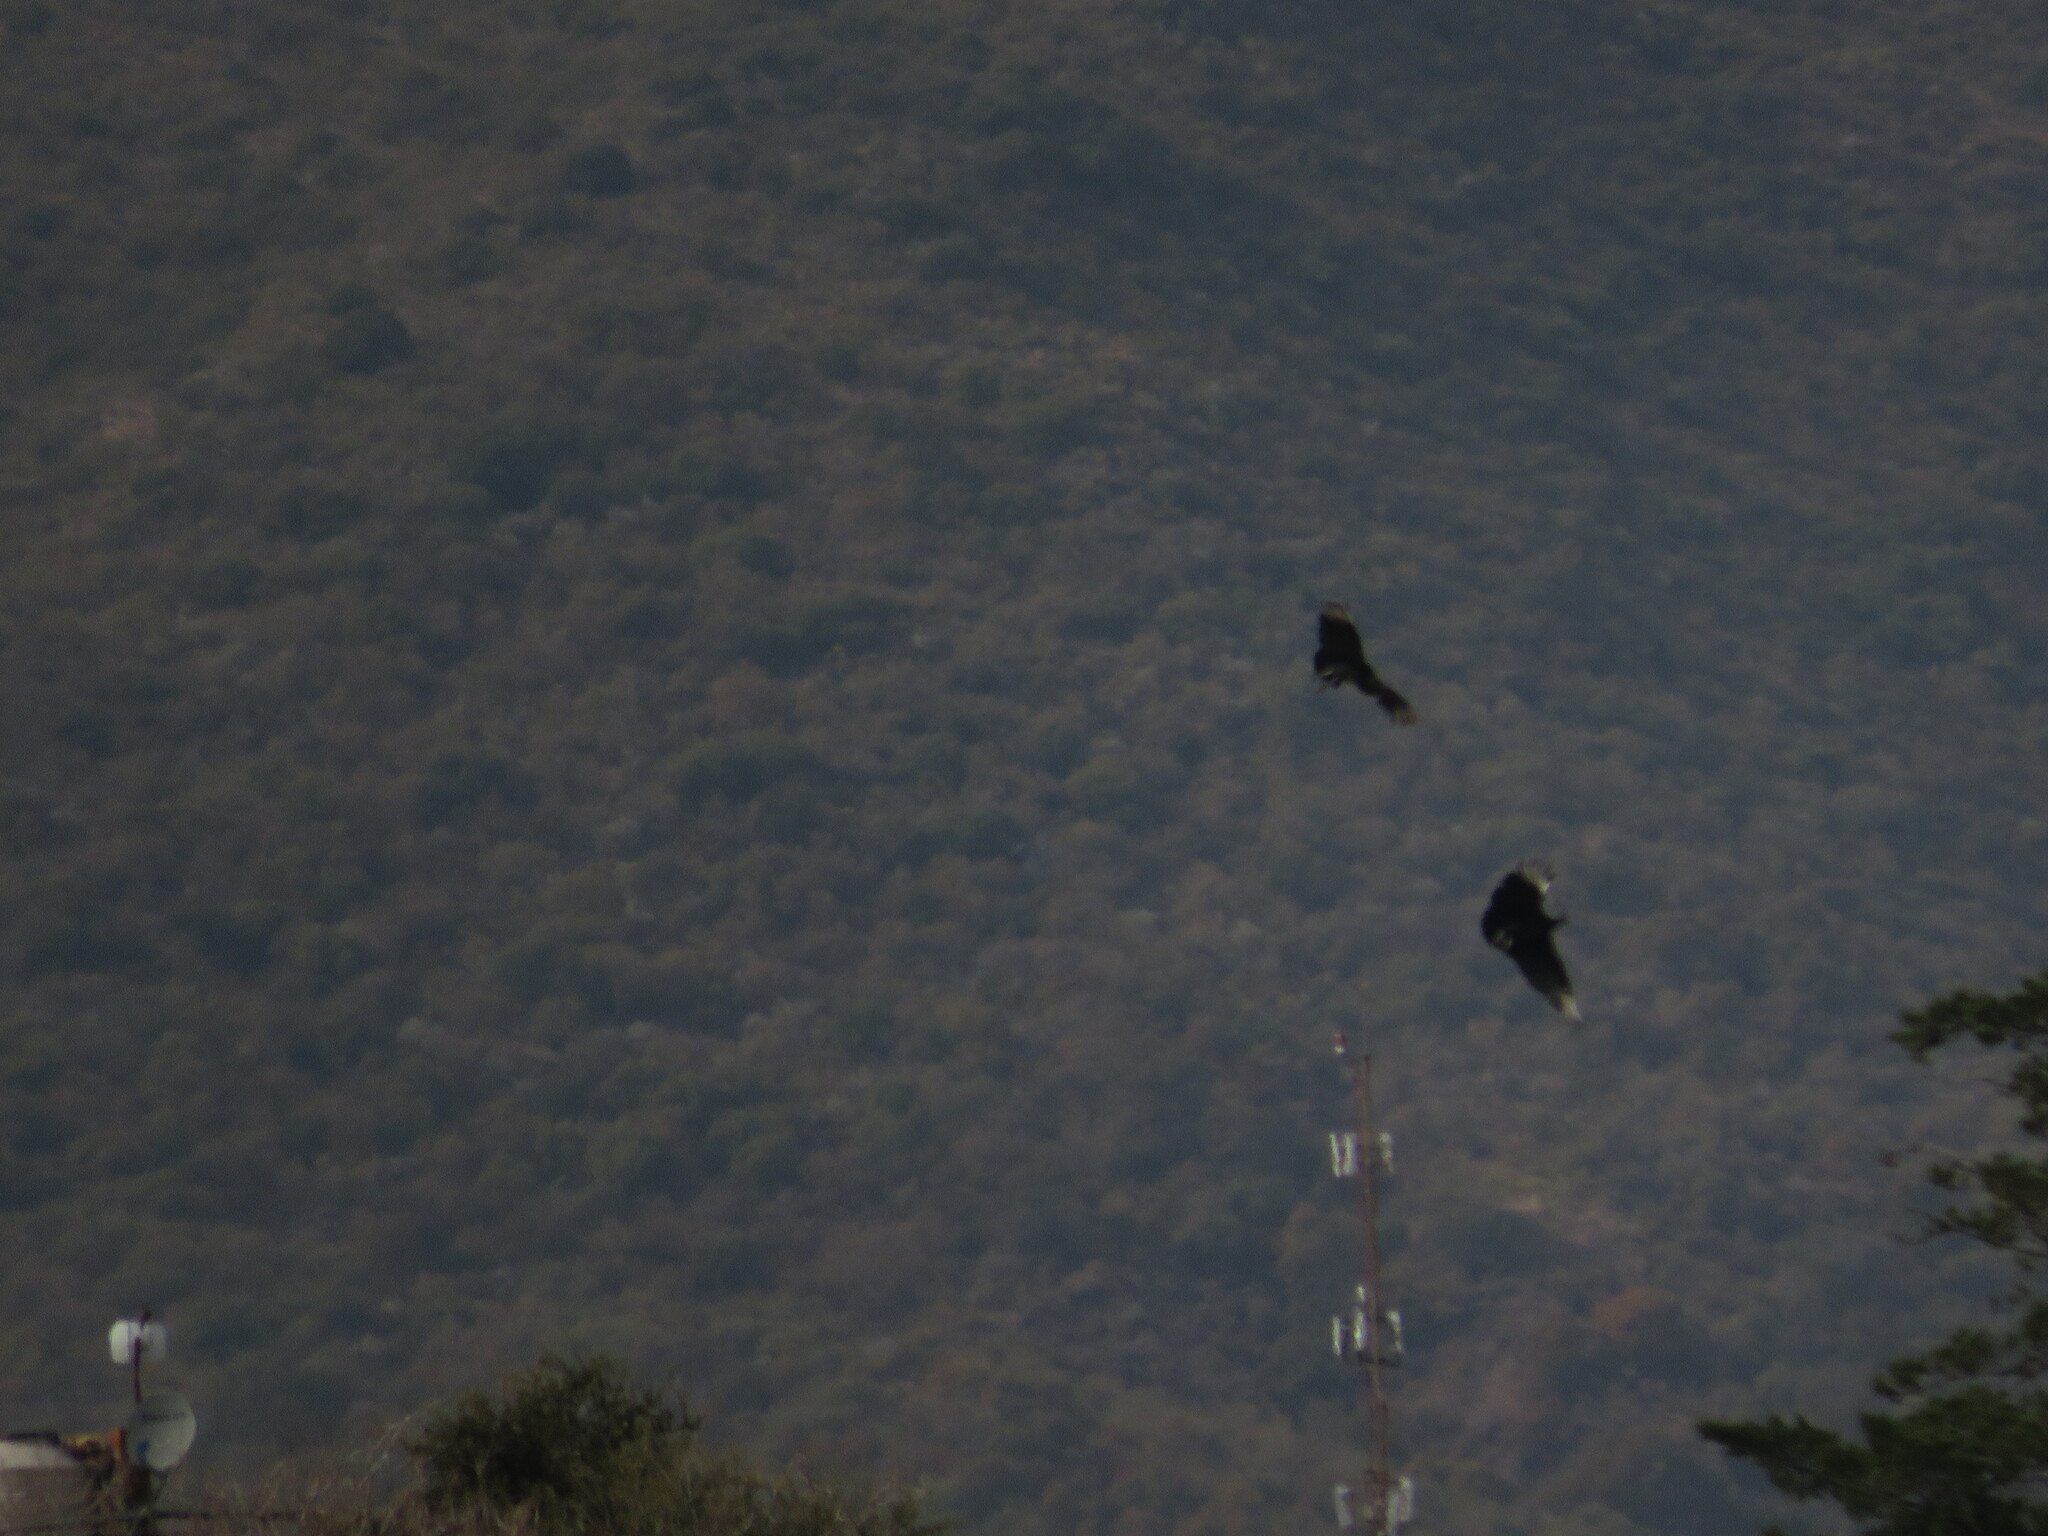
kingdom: Animalia
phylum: Chordata
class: Aves
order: Accipitriformes
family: Cathartidae
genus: Coragyps
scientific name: Coragyps atratus
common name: Black vulture
